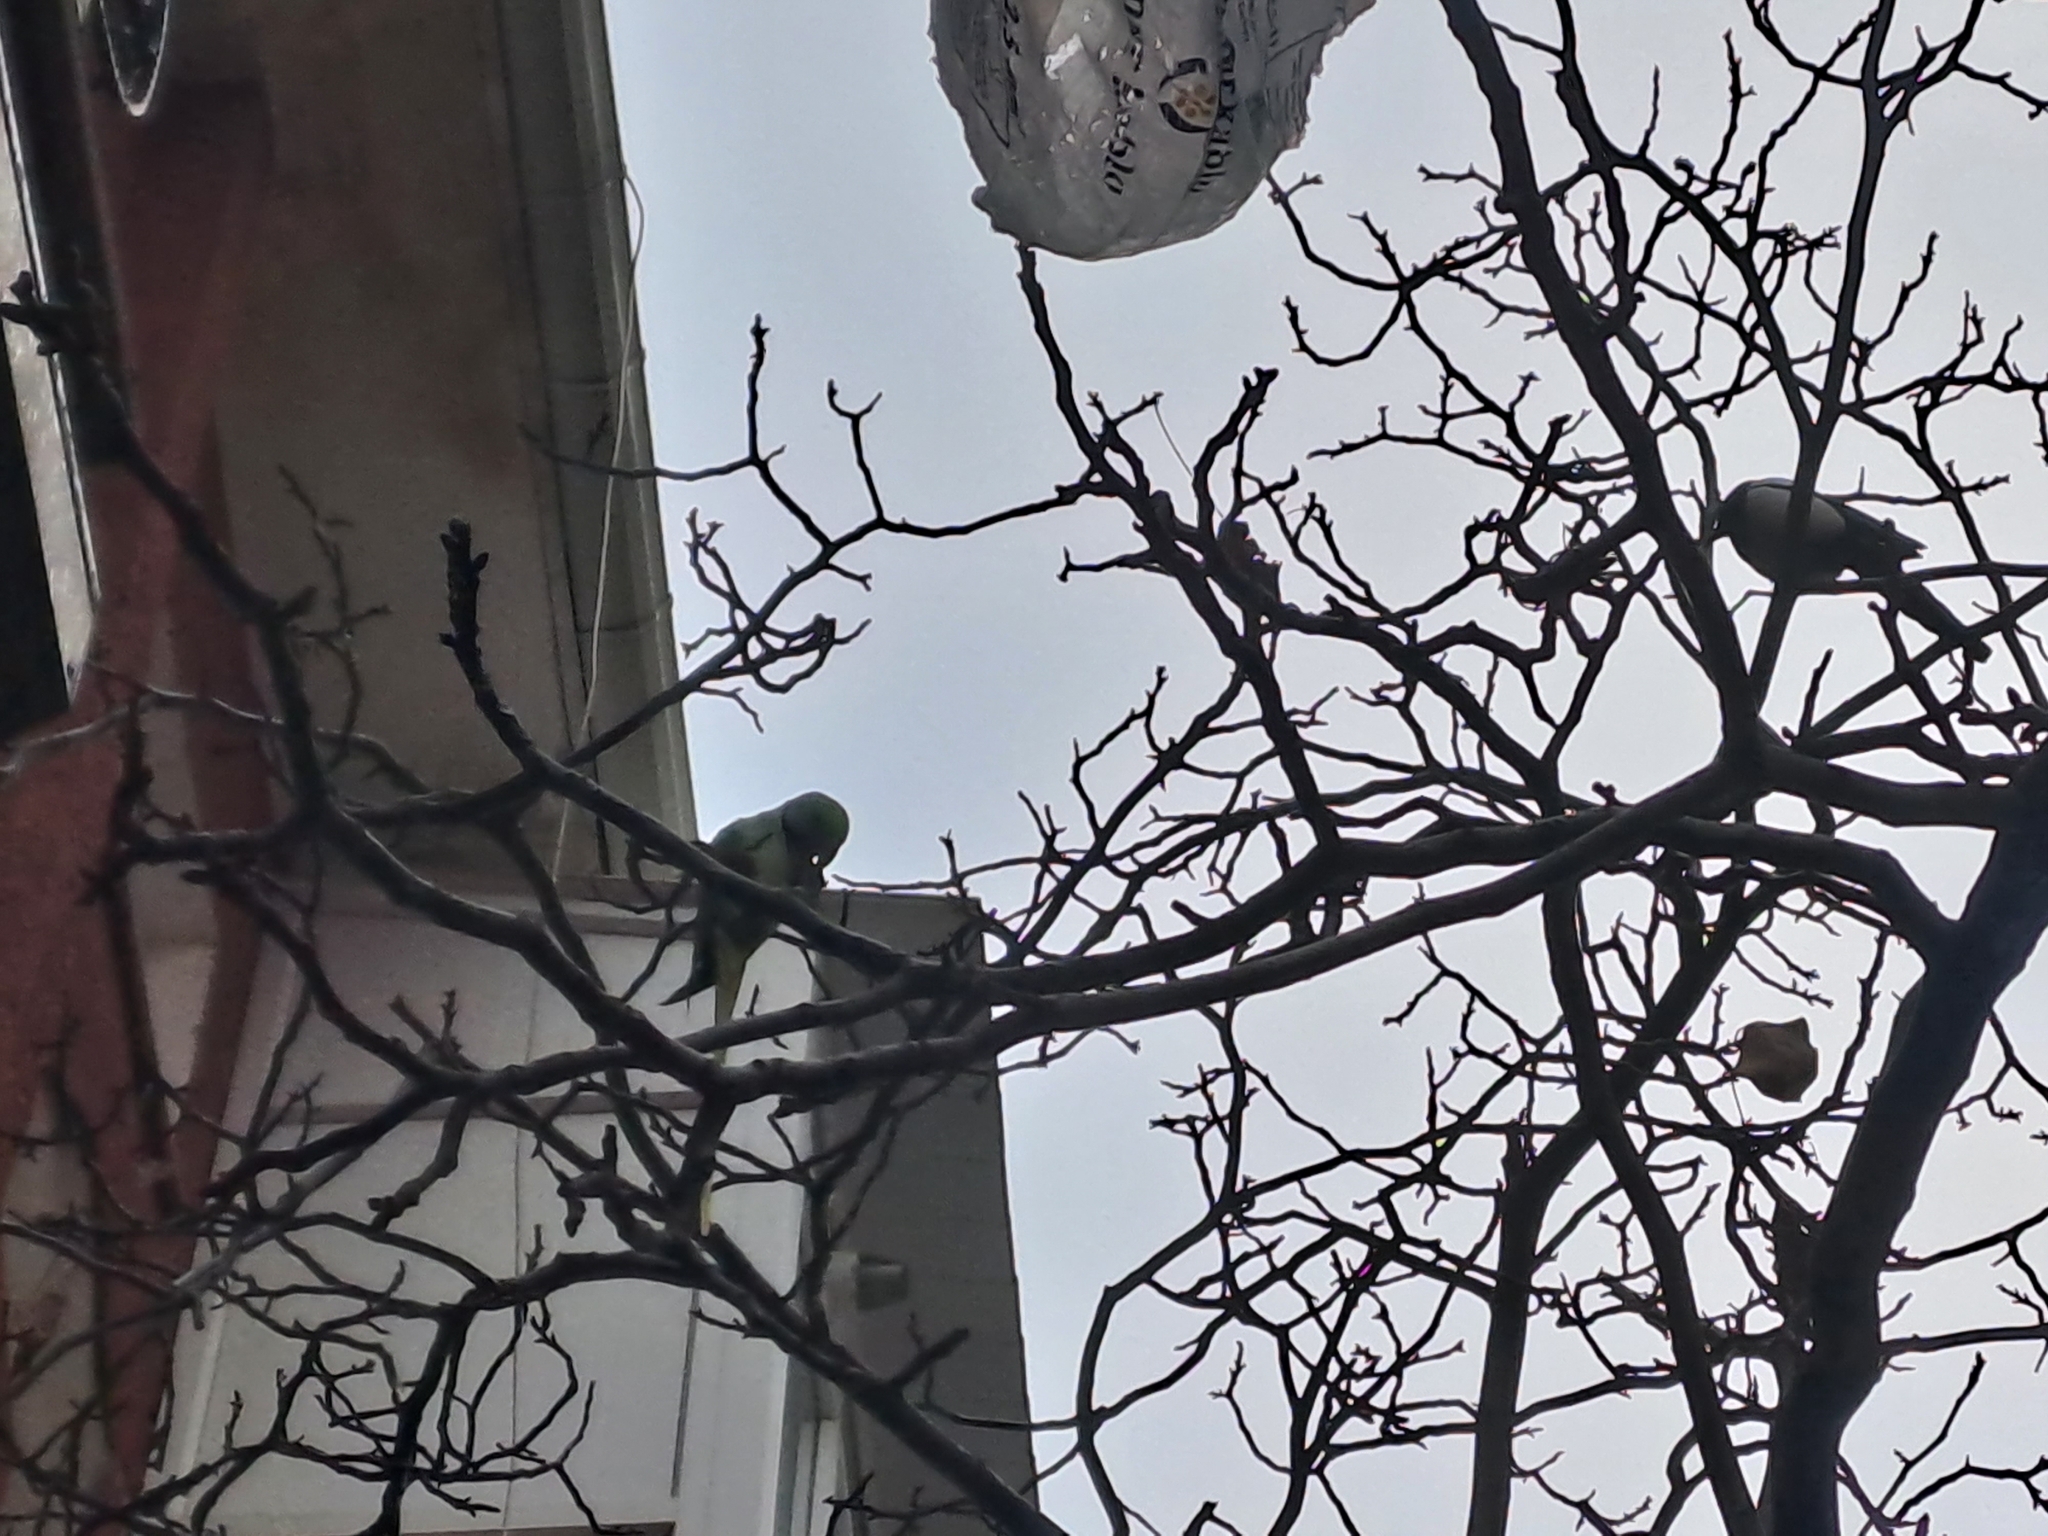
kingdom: Animalia
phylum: Chordata
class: Aves
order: Psittaciformes
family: Psittacidae
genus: Psittacula
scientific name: Psittacula eupatria
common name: Alexandrine parakeet
